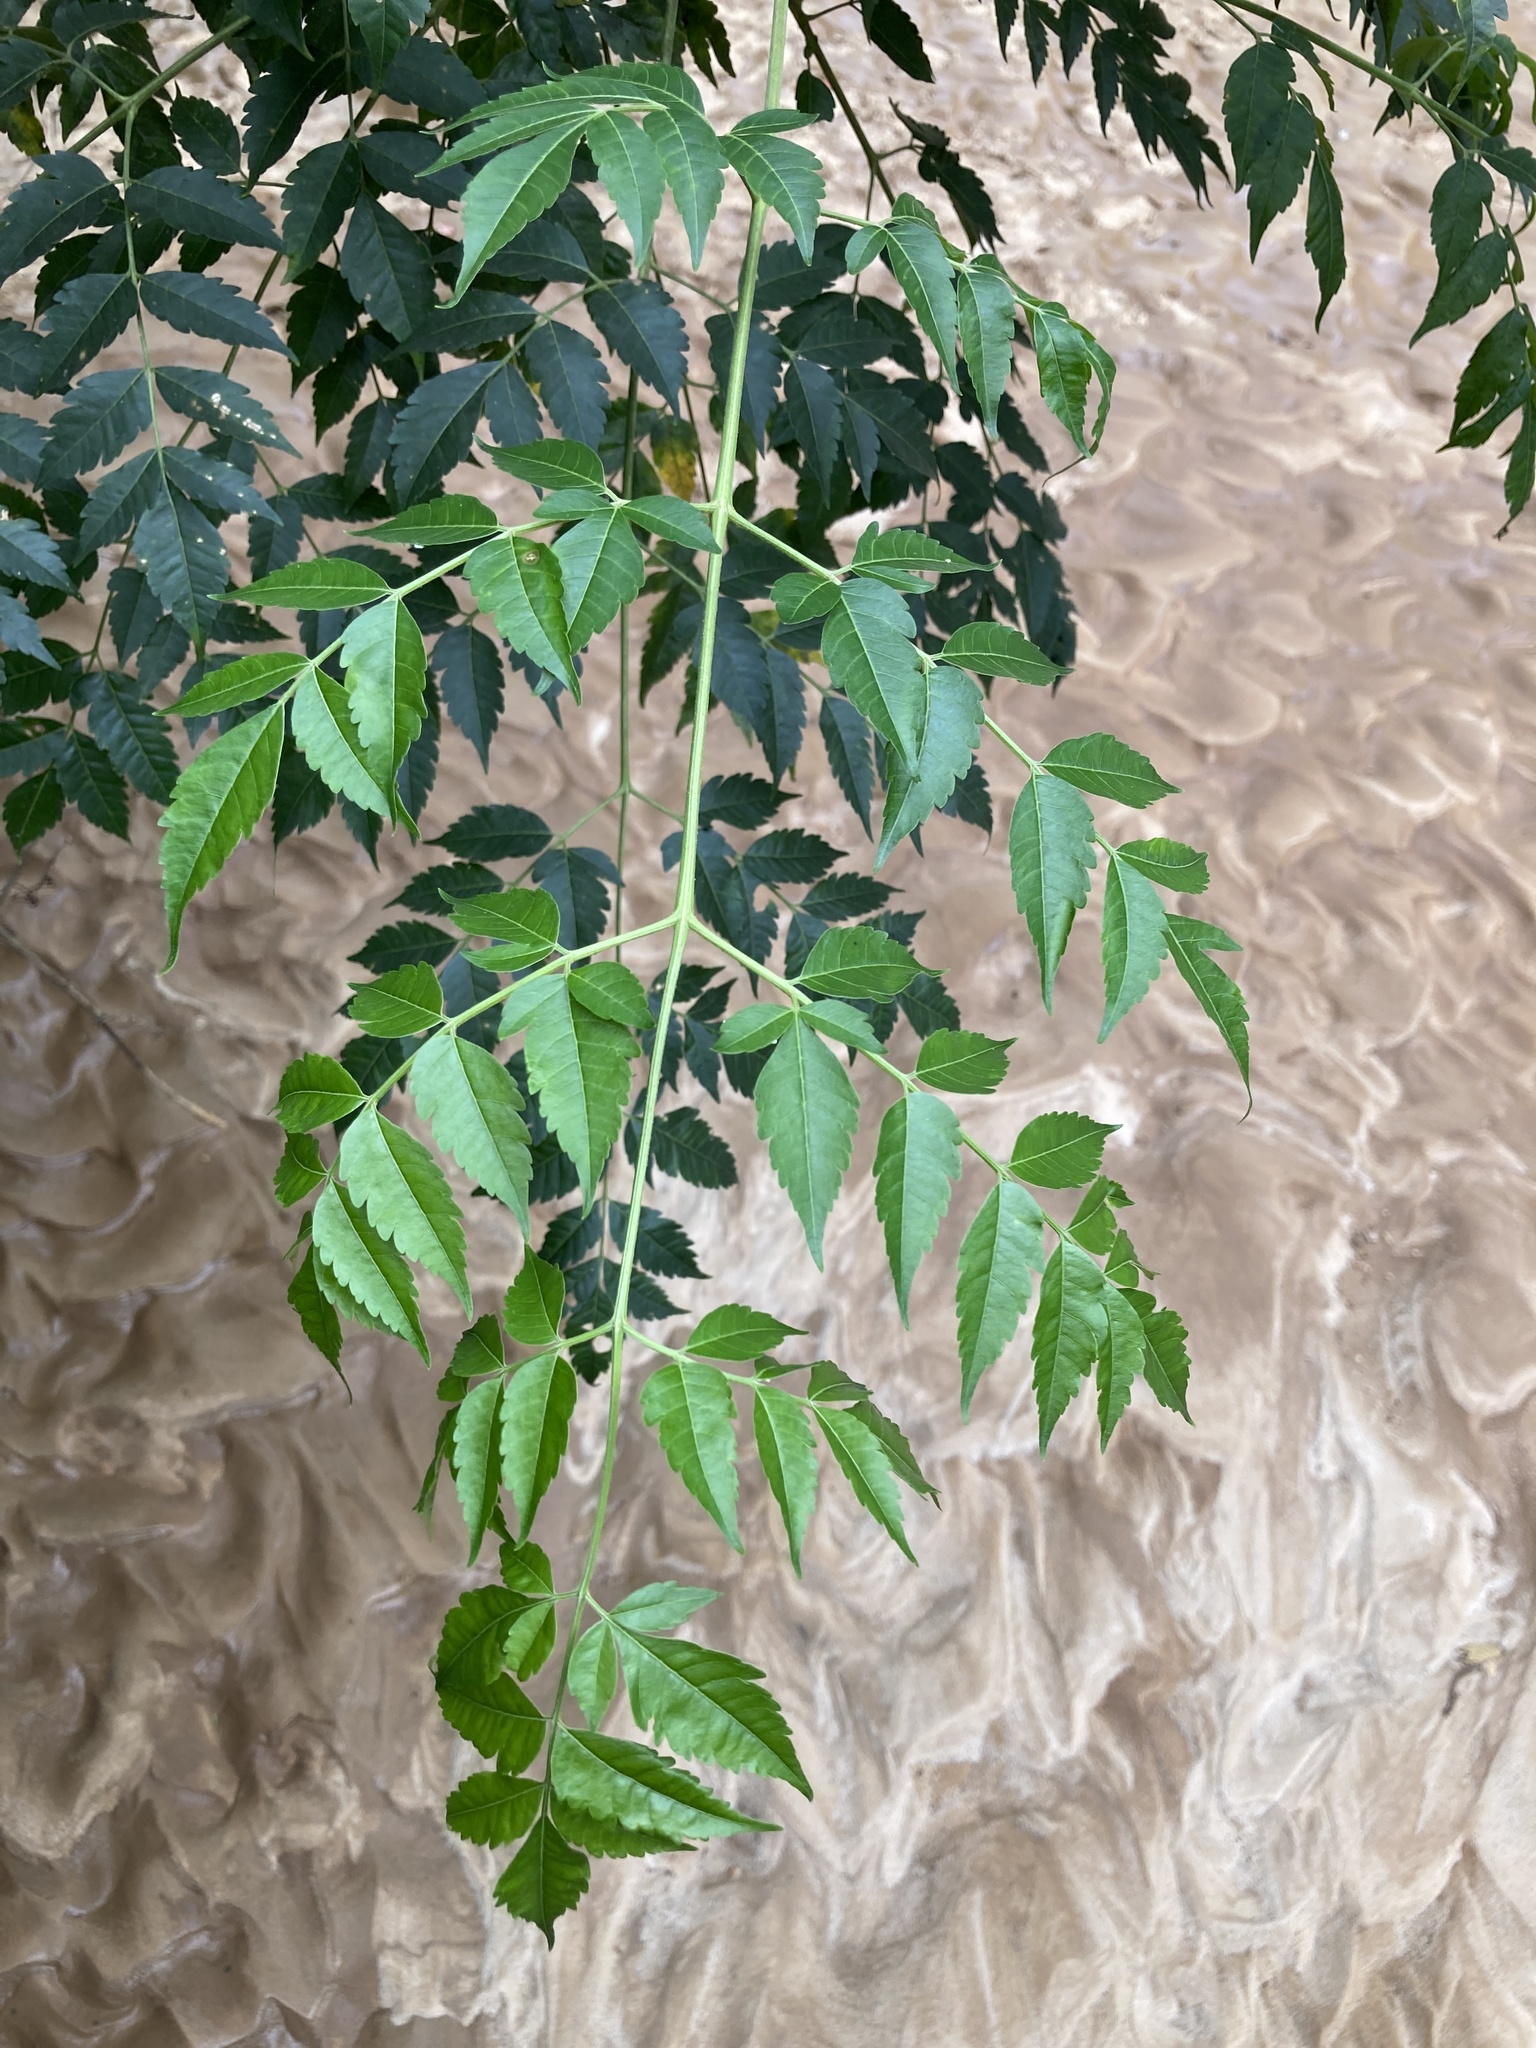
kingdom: Plantae
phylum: Tracheophyta
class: Magnoliopsida
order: Sapindales
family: Meliaceae
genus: Melia
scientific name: Melia azedarach
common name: Chinaberrytree
